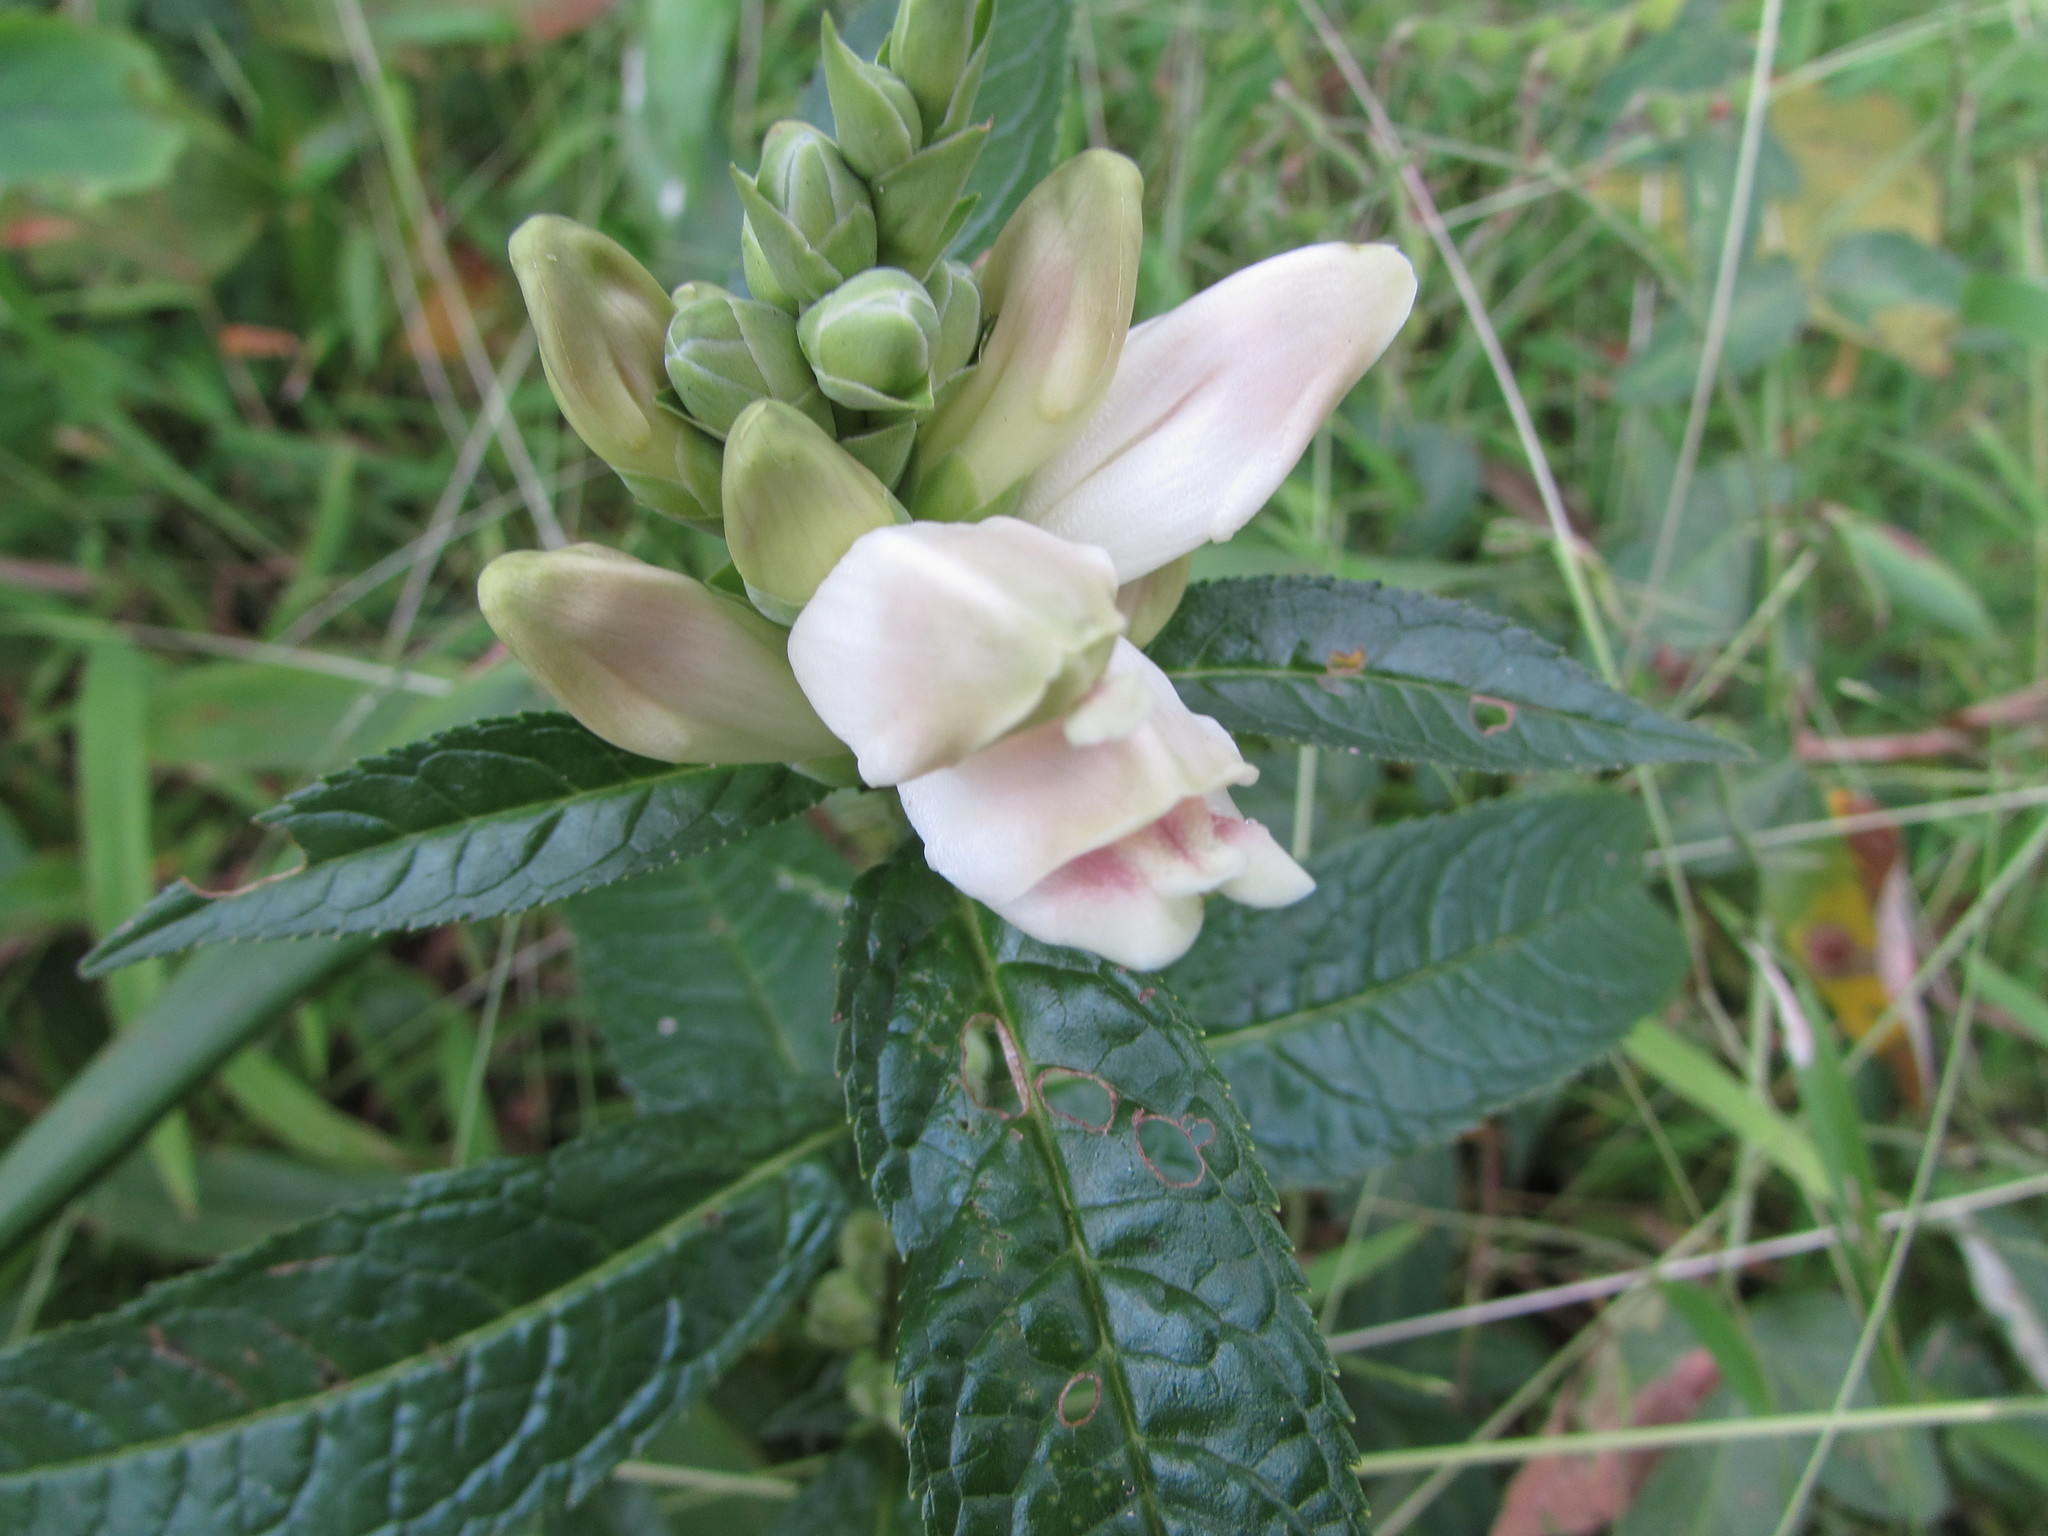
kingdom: Plantae
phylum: Tracheophyta
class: Magnoliopsida
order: Lamiales
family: Plantaginaceae
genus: Chelone
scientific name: Chelone glabra
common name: Snakehead
